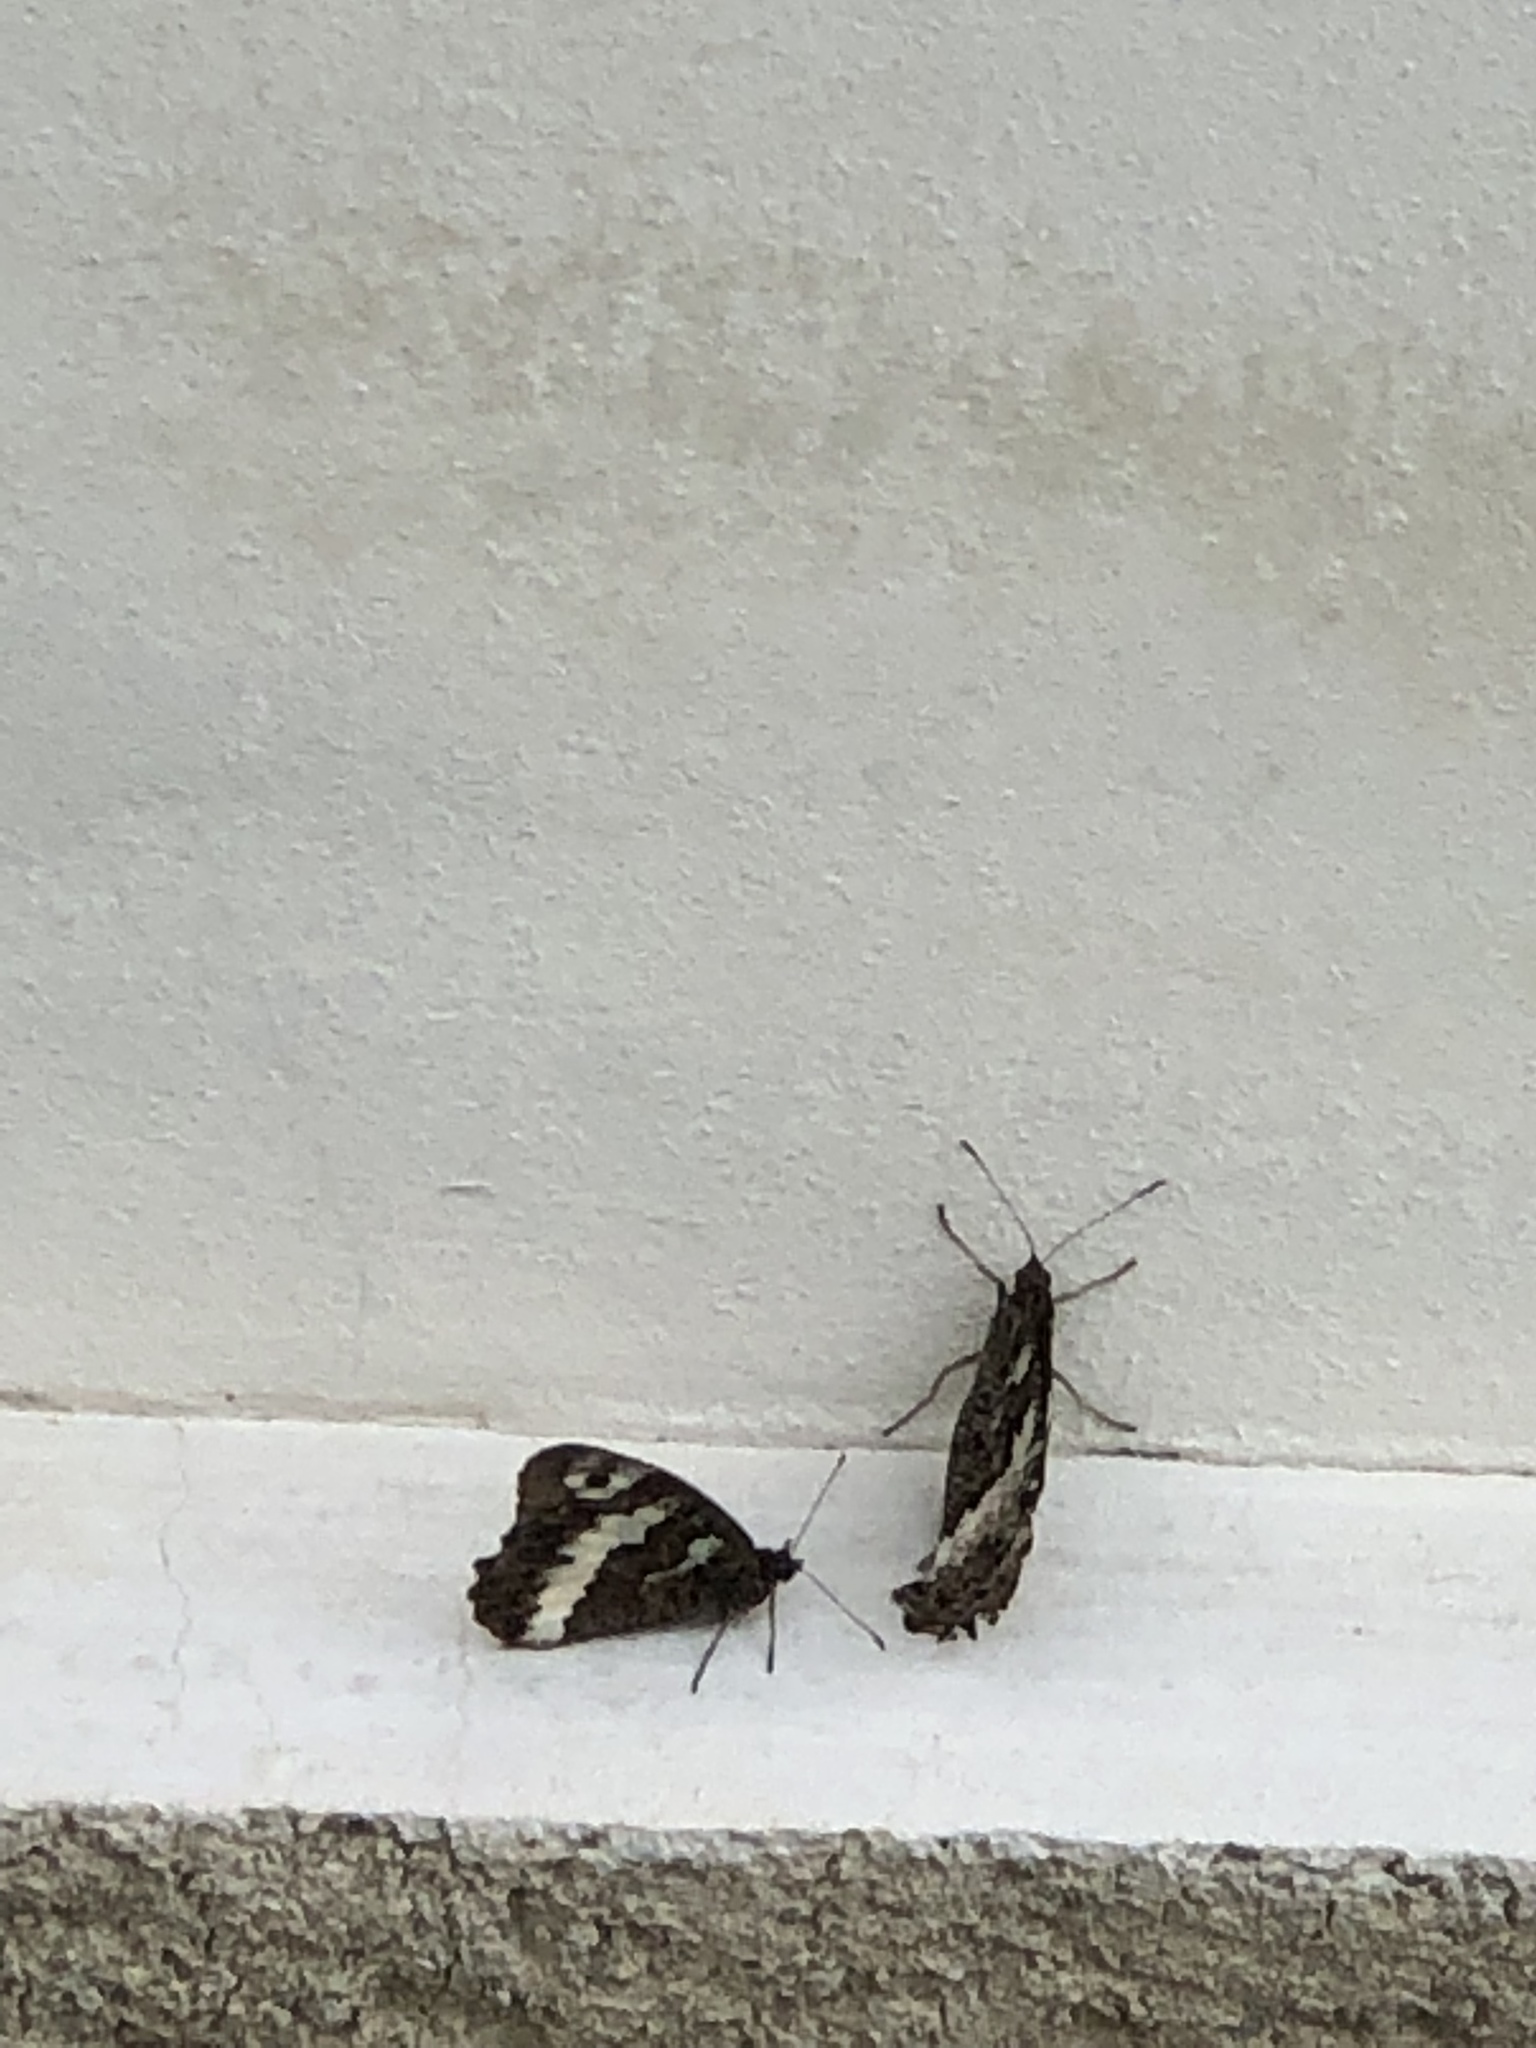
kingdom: Animalia
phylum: Arthropoda
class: Insecta
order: Lepidoptera
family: Lycaenidae
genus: Loweia
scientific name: Loweia tityrus
